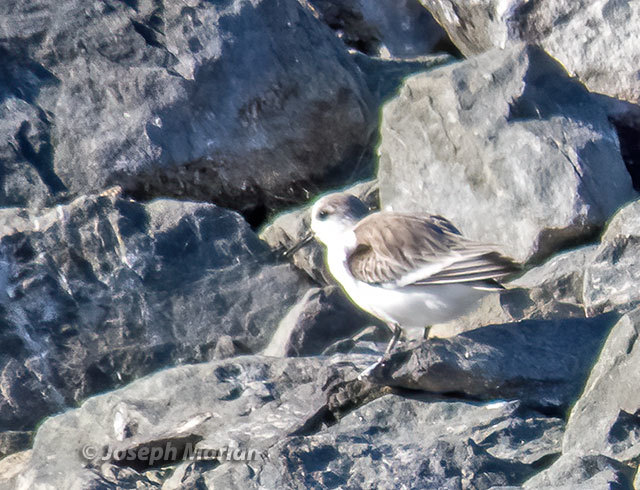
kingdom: Animalia
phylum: Chordata
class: Aves
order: Charadriiformes
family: Scolopacidae
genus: Calidris
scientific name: Calidris alba
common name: Sanderling
